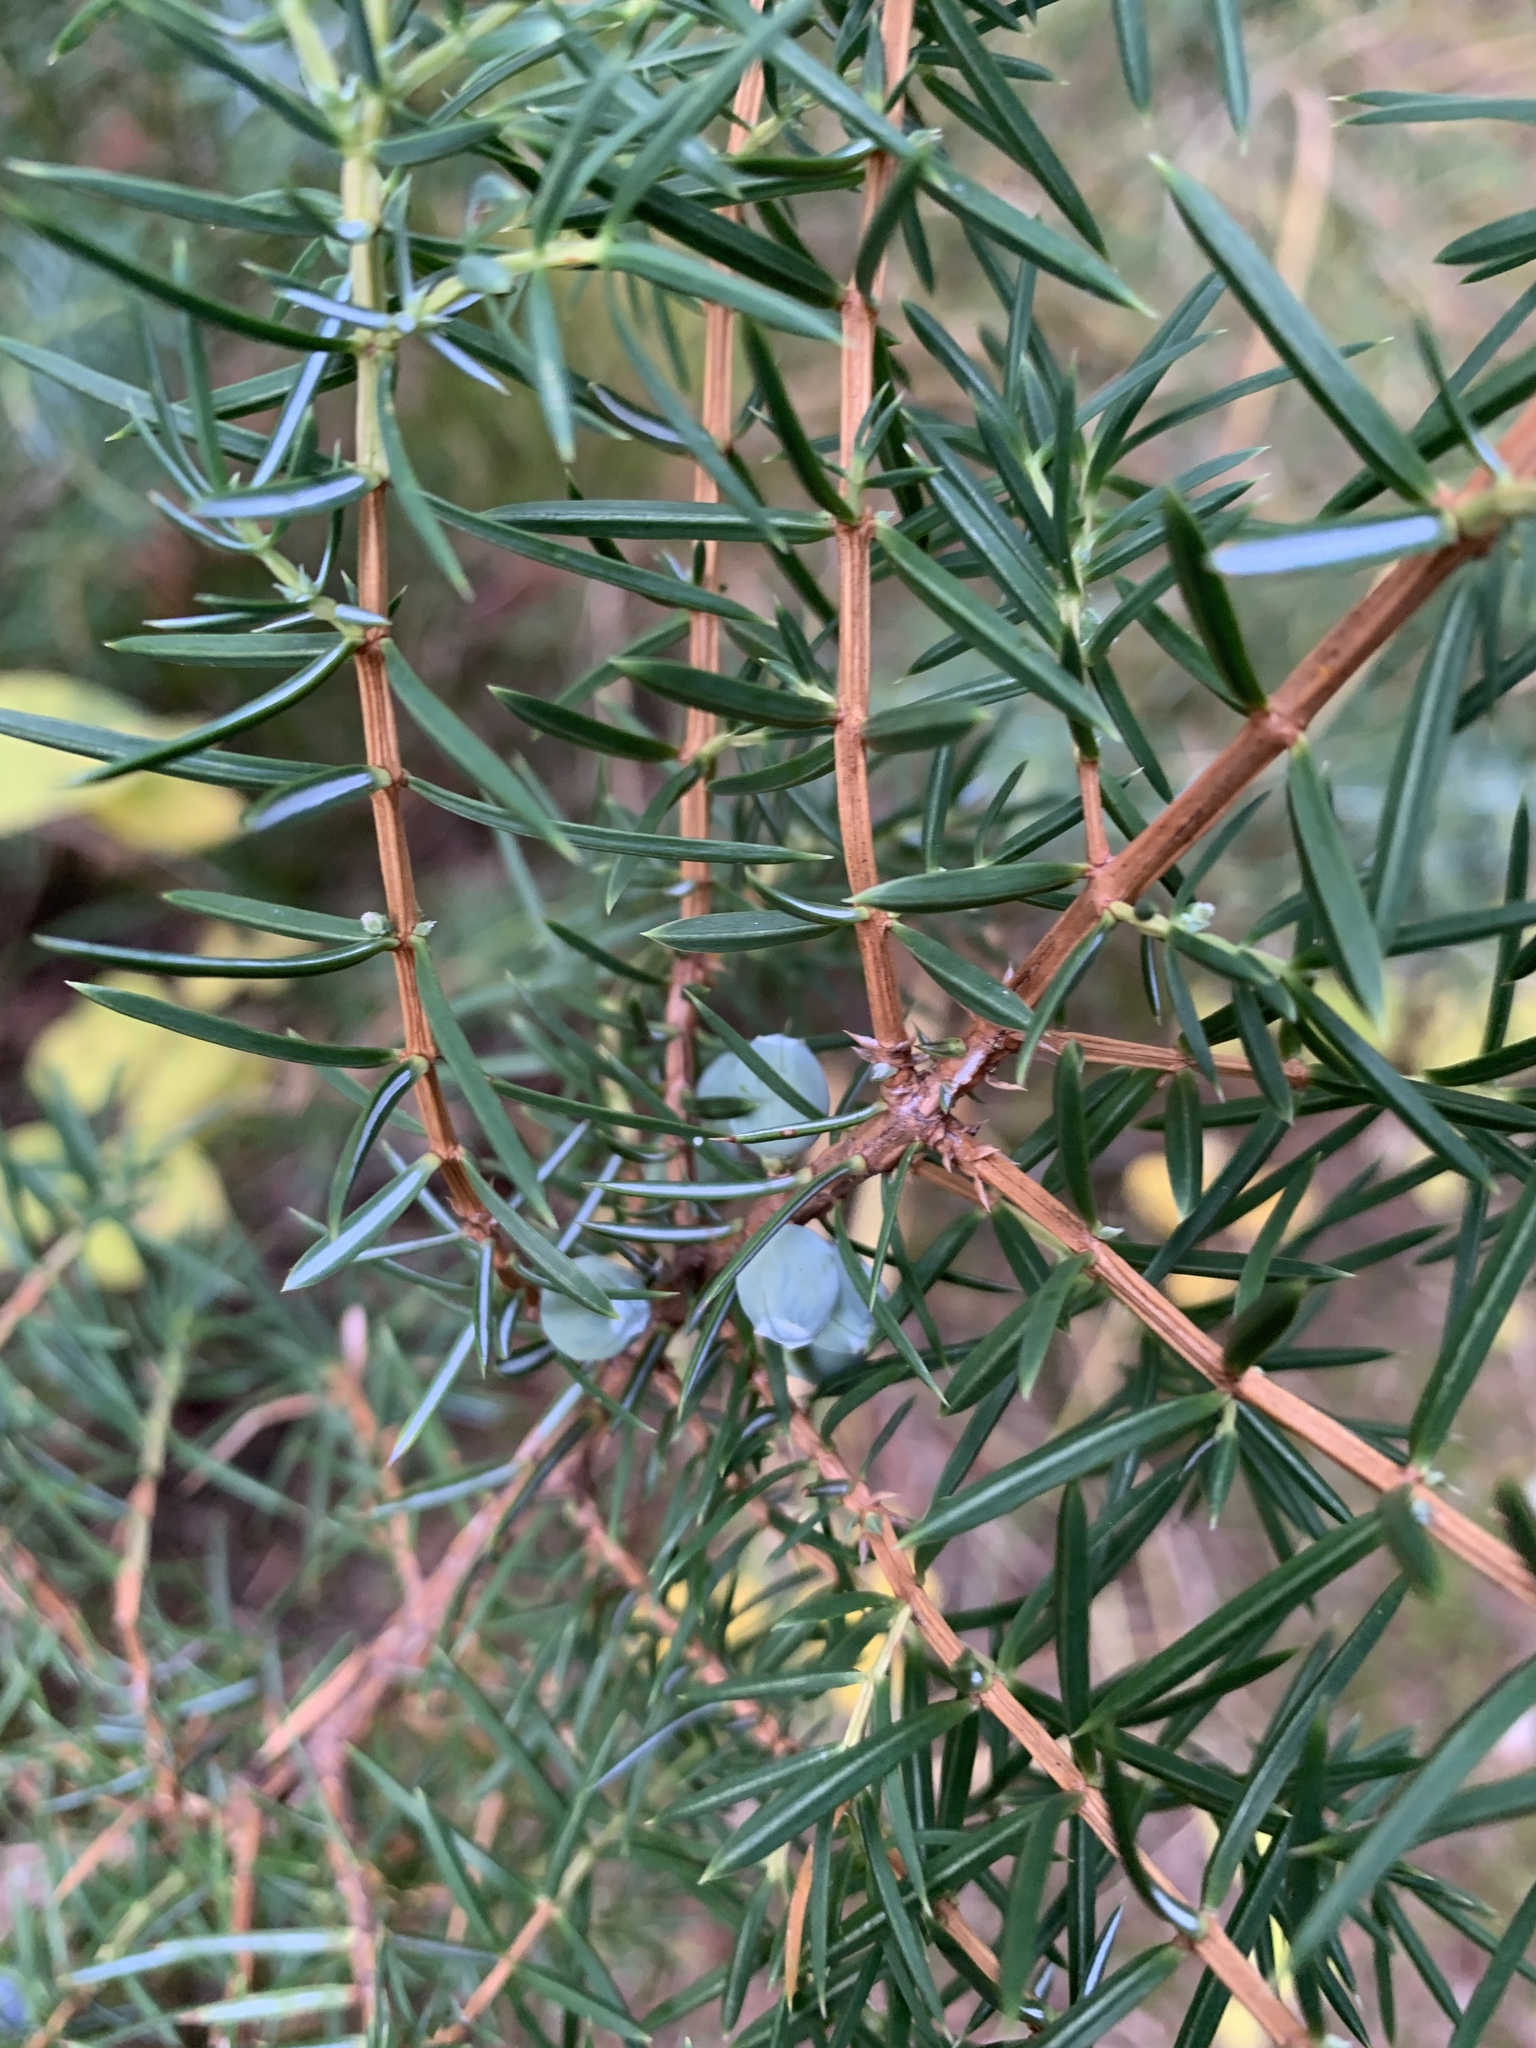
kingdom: Plantae
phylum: Tracheophyta
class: Pinopsida
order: Pinales
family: Cupressaceae
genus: Juniperus
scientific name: Juniperus communis
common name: Common juniper
